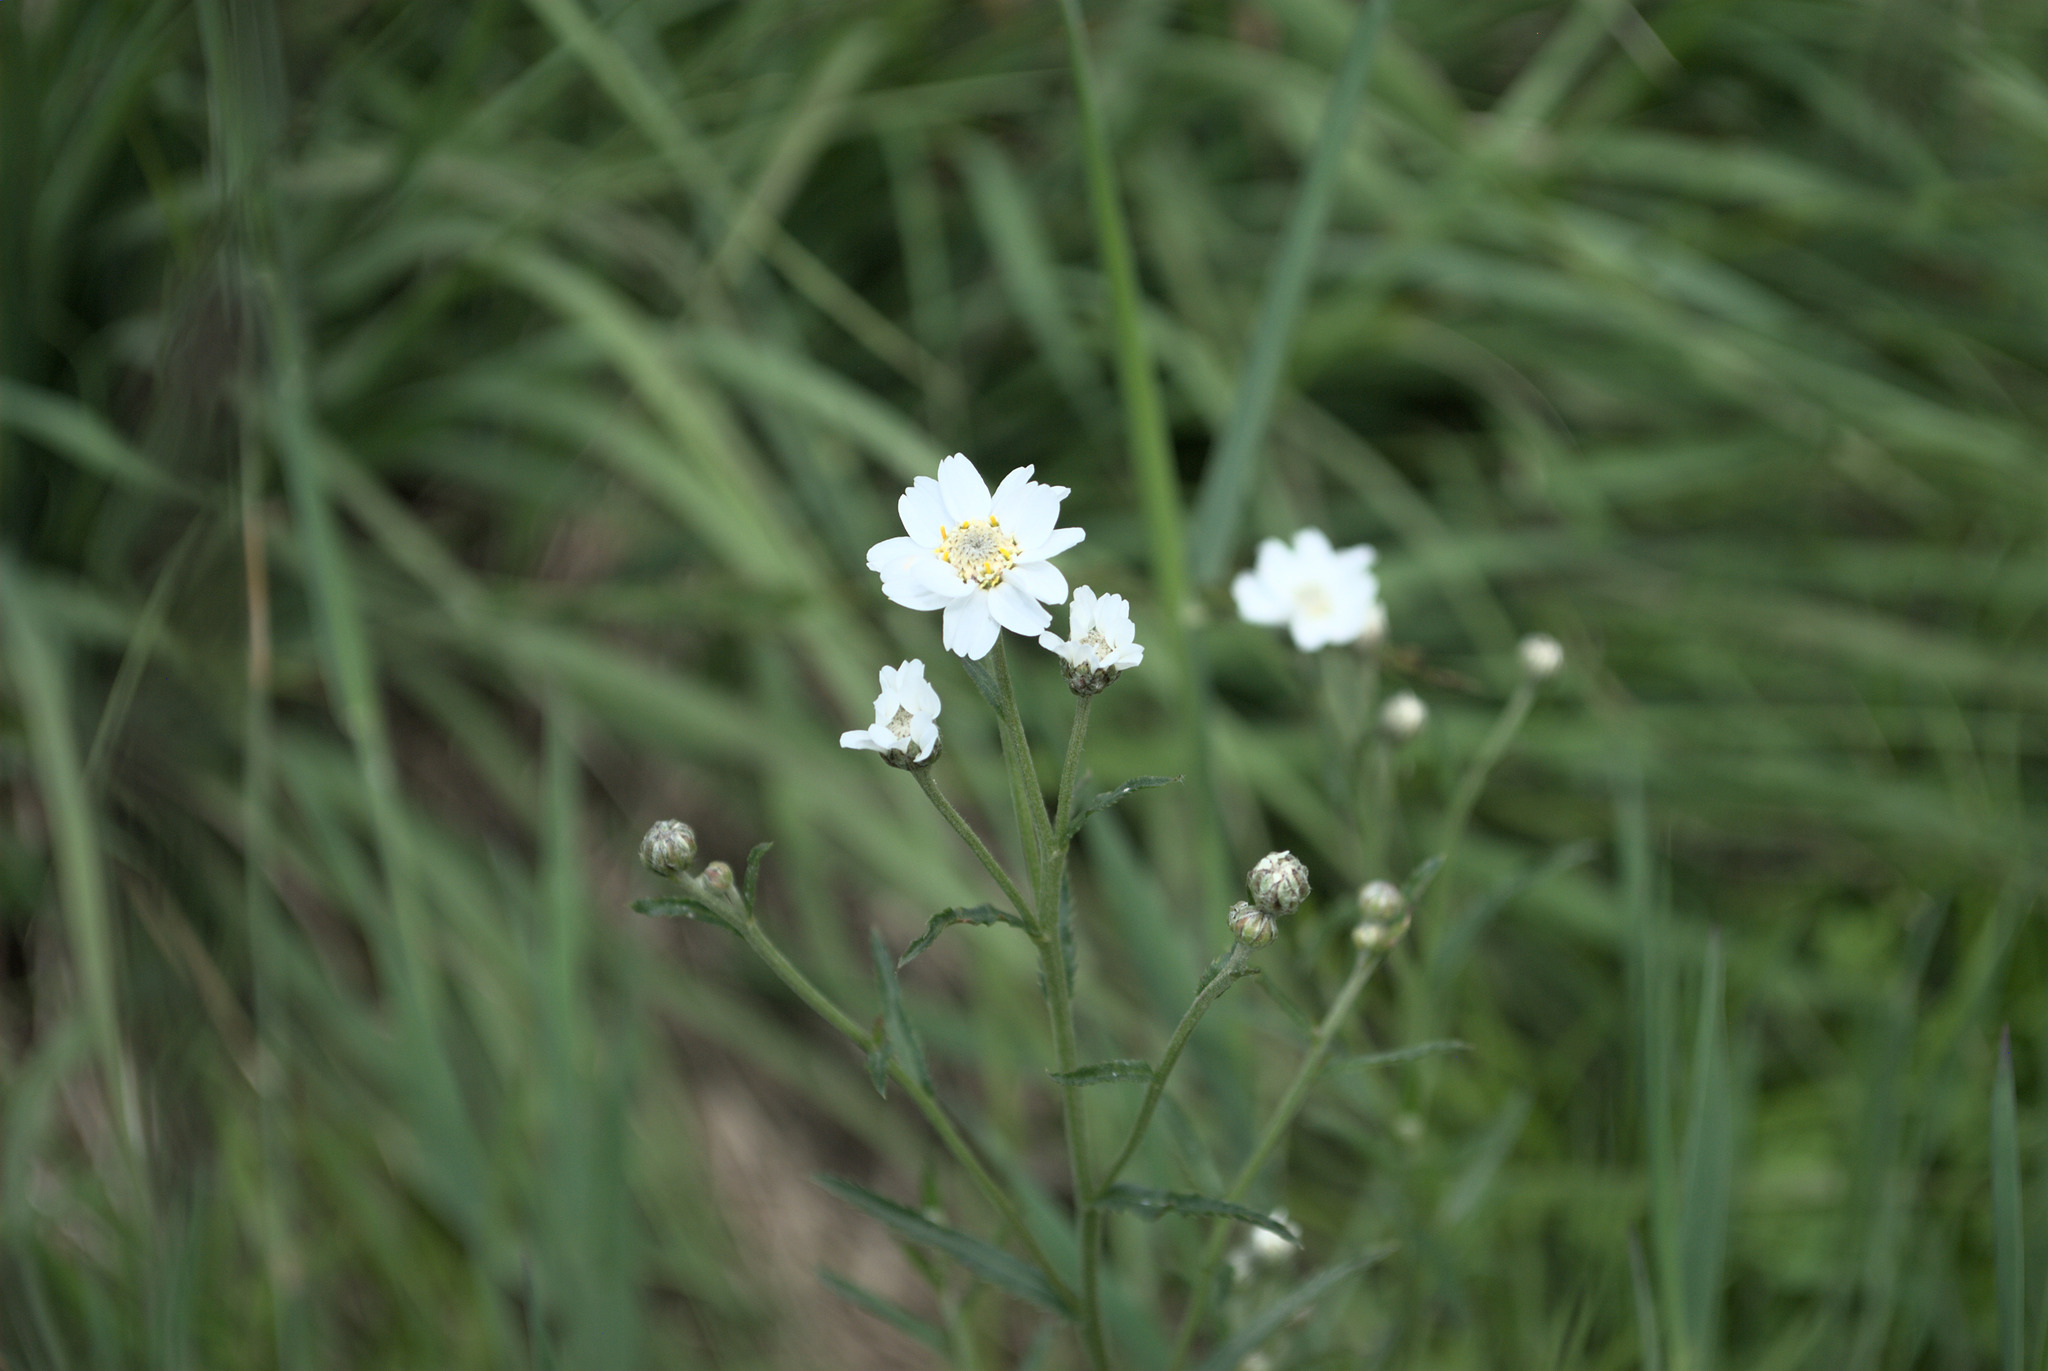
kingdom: Plantae
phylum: Tracheophyta
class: Magnoliopsida
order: Asterales
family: Asteraceae
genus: Achillea
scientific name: Achillea ptarmica
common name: Sneezeweed
